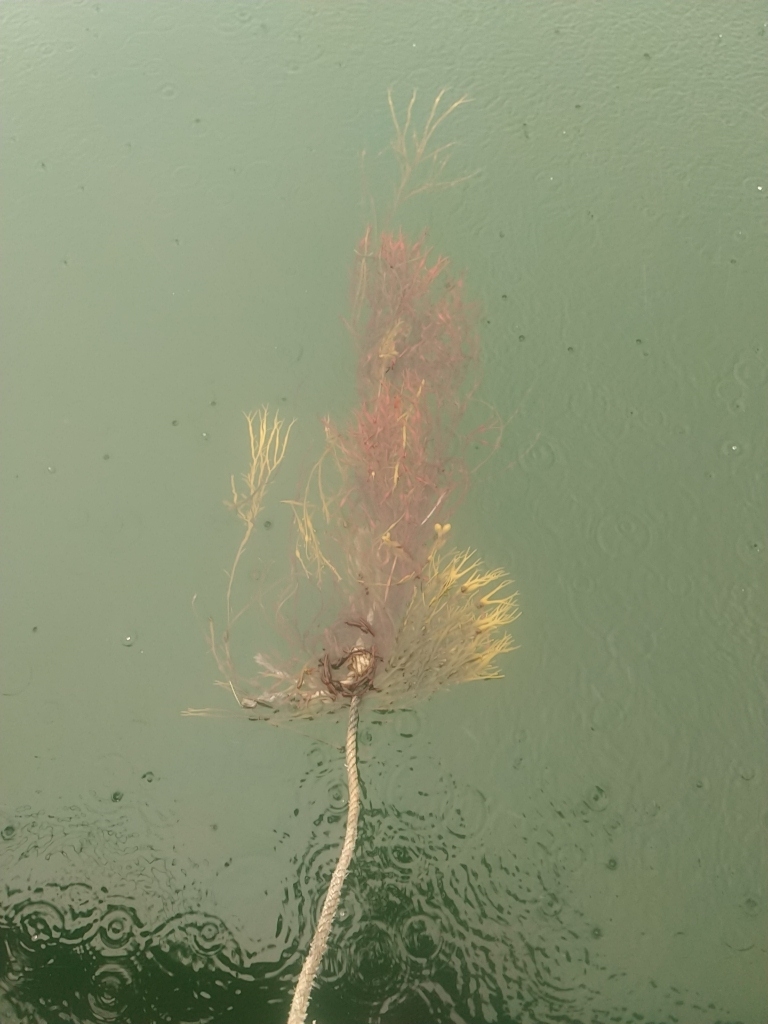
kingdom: Chromista
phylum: Ochrophyta
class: Phaeophyceae
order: Fucales
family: Fucaceae
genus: Ascophyllum
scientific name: Ascophyllum nodosum
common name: Knotted wrack
